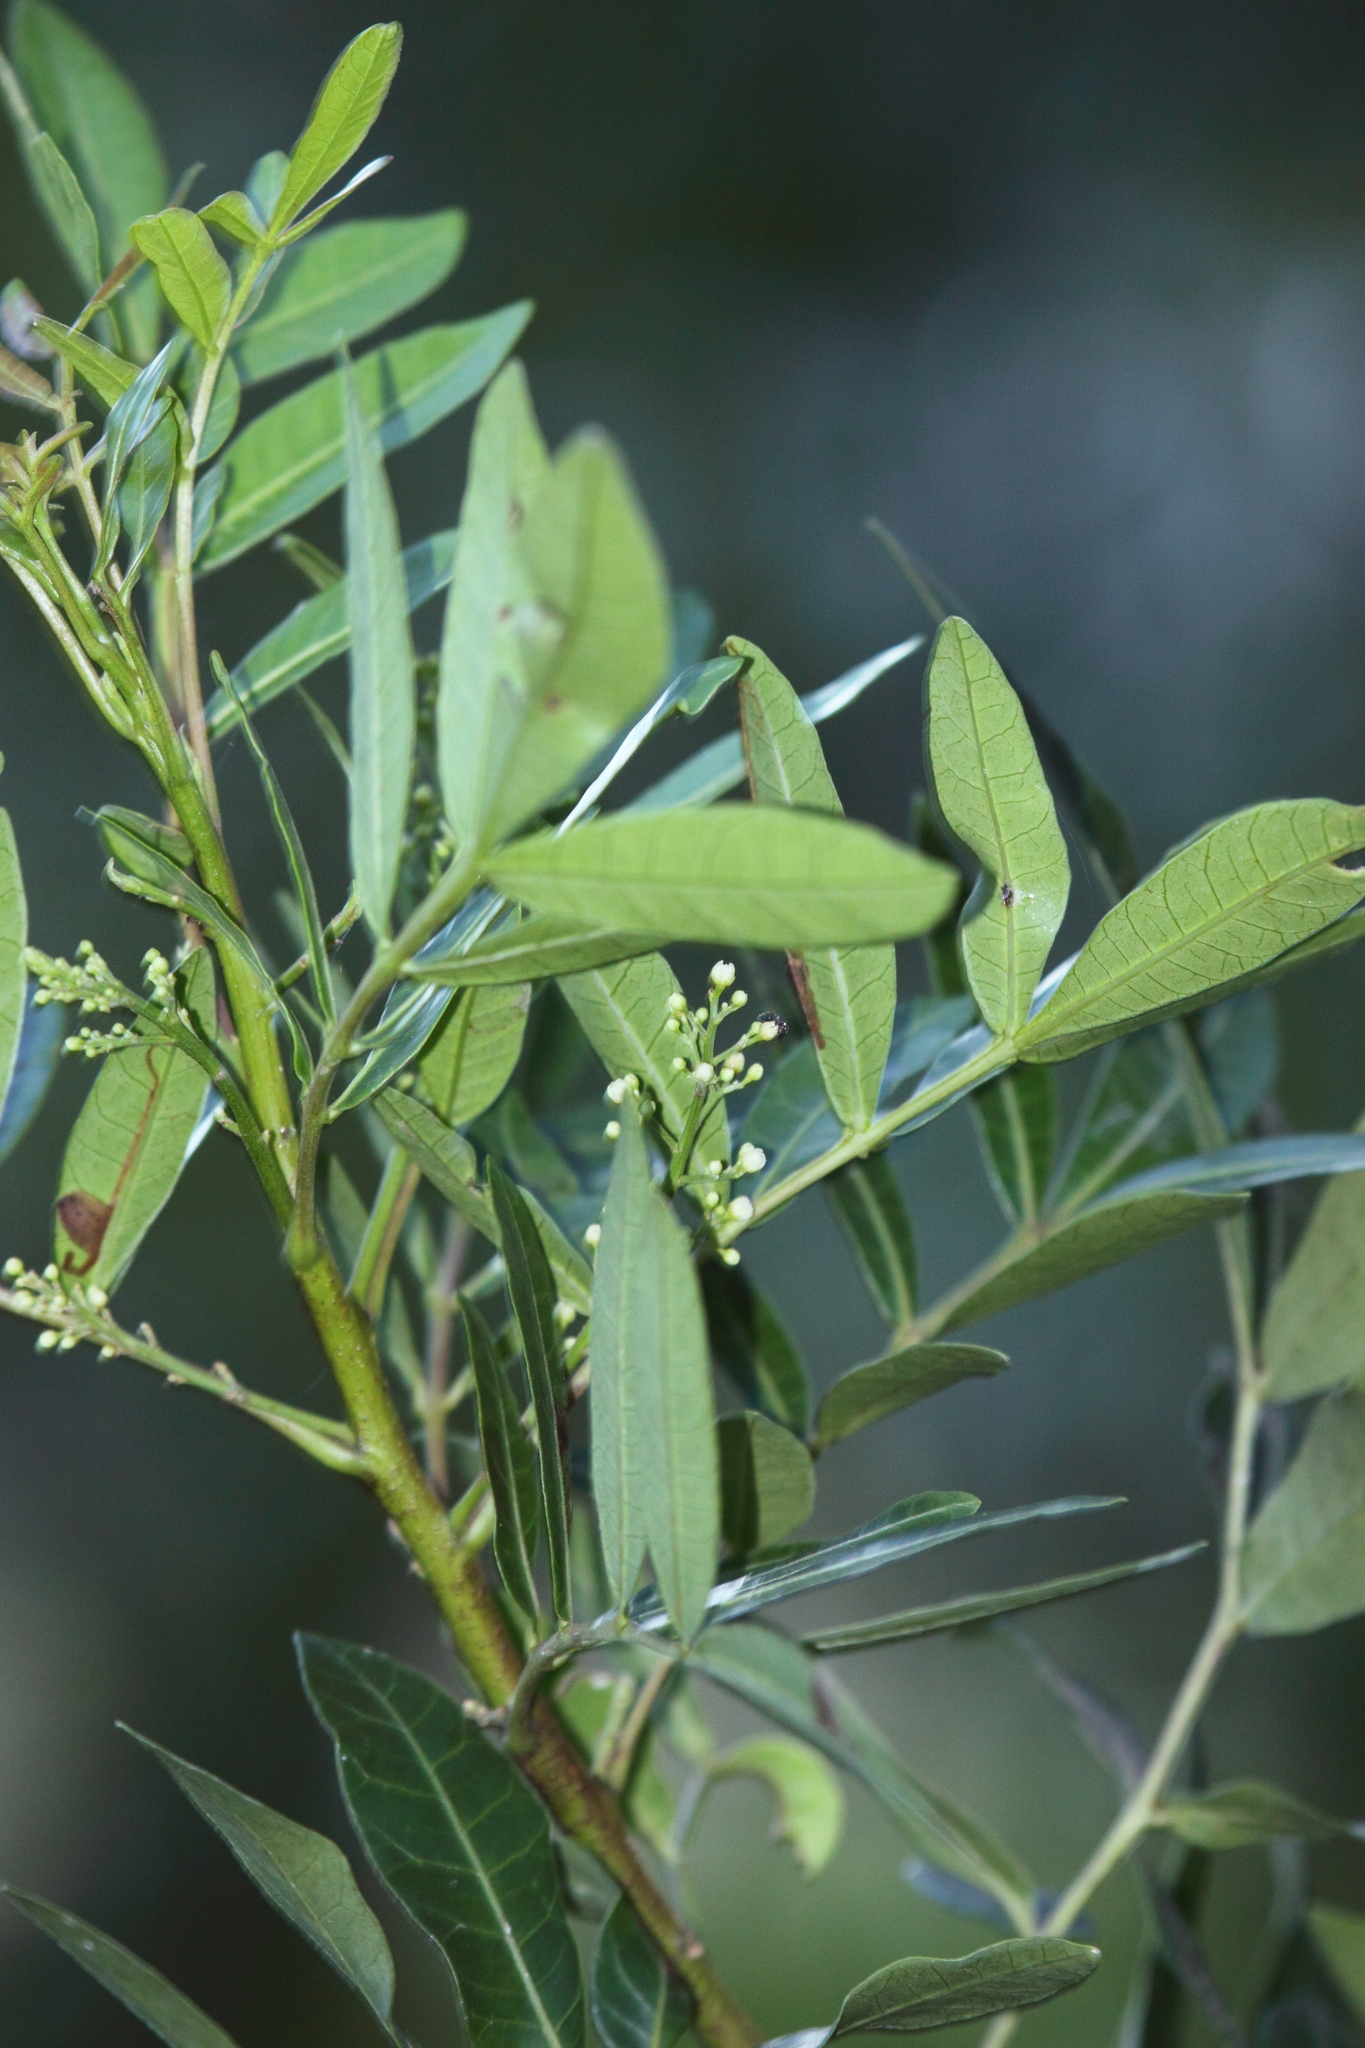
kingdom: Plantae
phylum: Tracheophyta
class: Magnoliopsida
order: Sapindales
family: Anacardiaceae
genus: Schinus
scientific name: Schinus terebinthifolia
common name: Brazilian peppertree
